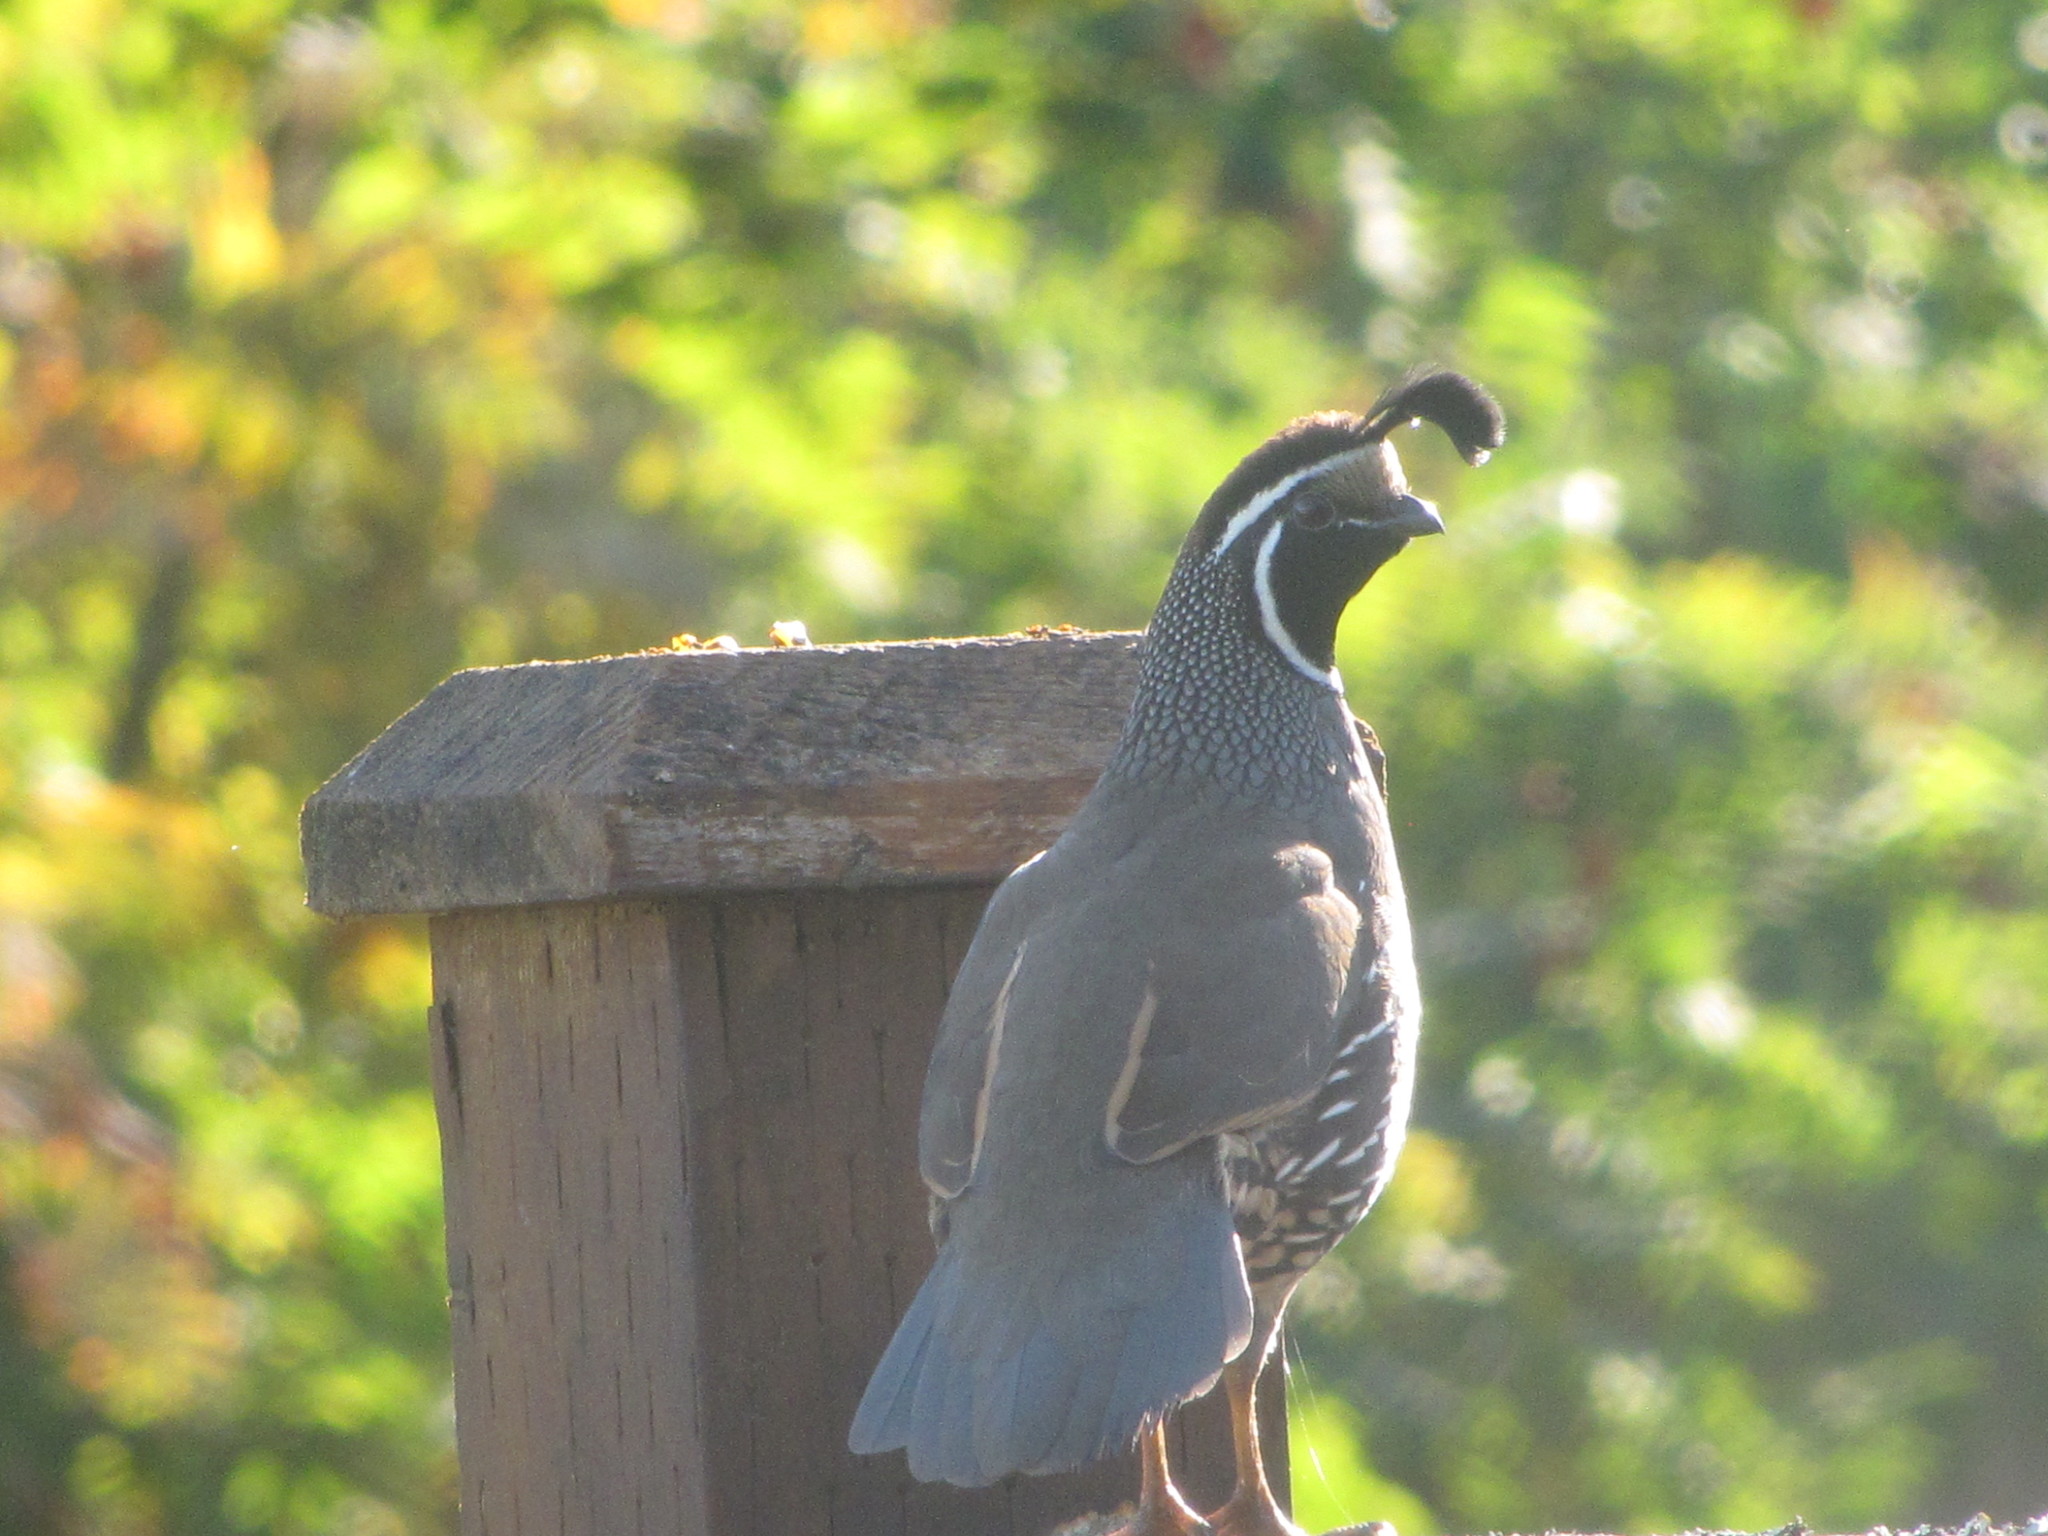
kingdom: Animalia
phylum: Chordata
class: Aves
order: Galliformes
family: Odontophoridae
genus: Callipepla
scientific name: Callipepla californica
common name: California quail
